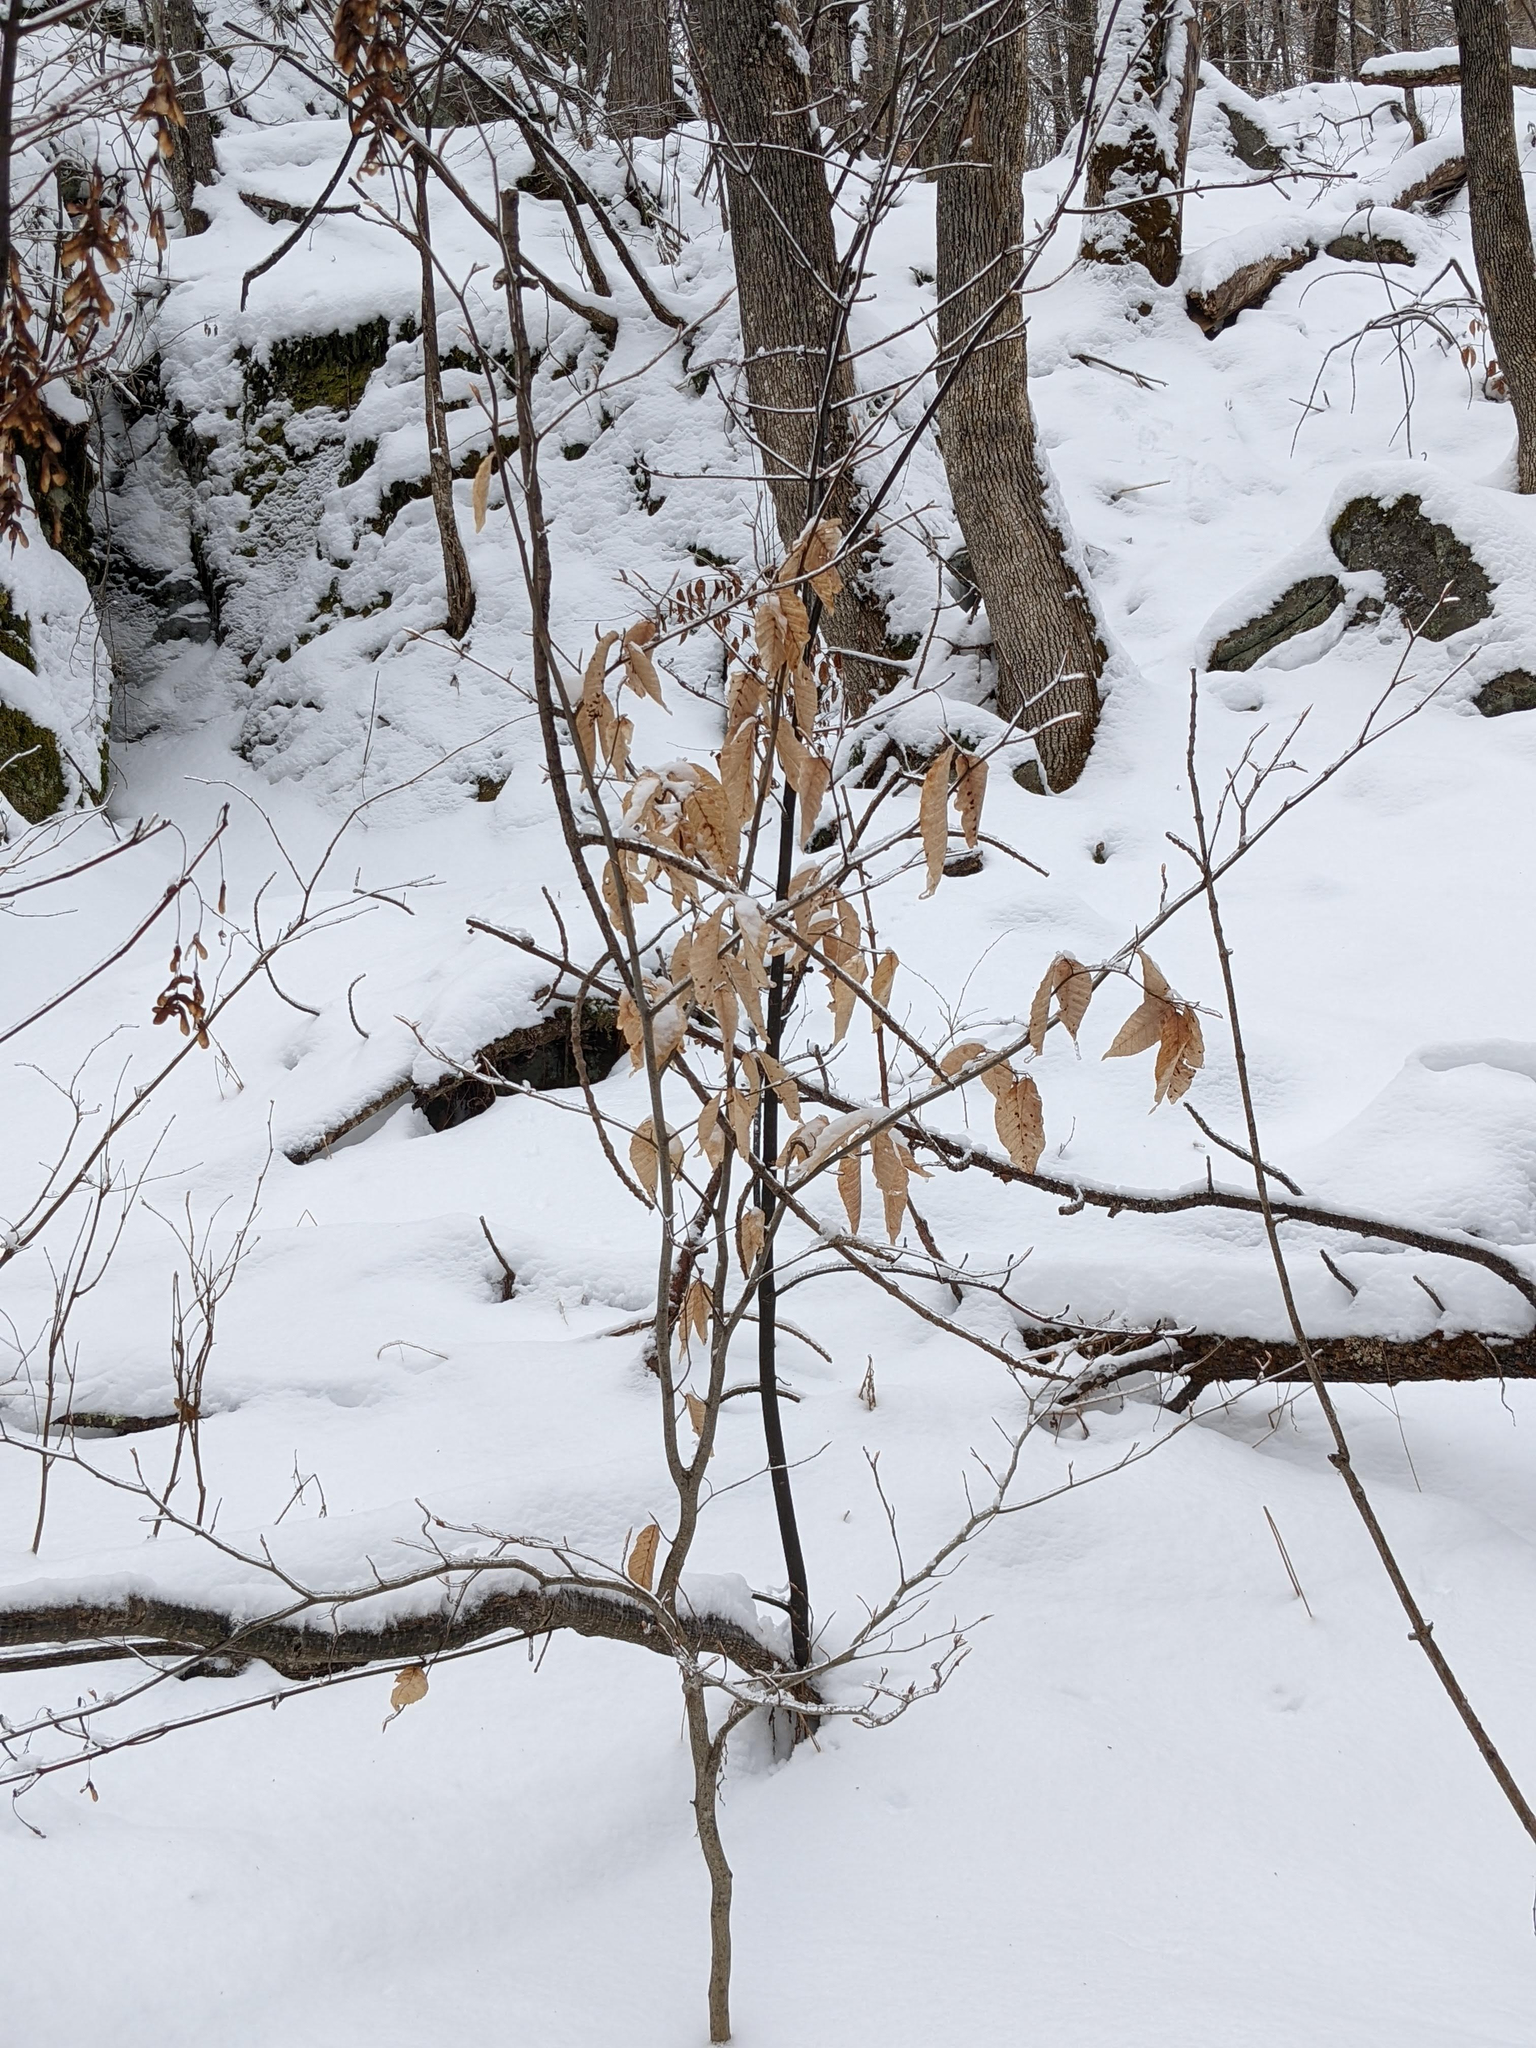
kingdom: Plantae
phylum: Tracheophyta
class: Magnoliopsida
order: Fagales
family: Fagaceae
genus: Fagus
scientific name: Fagus grandifolia
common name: American beech
